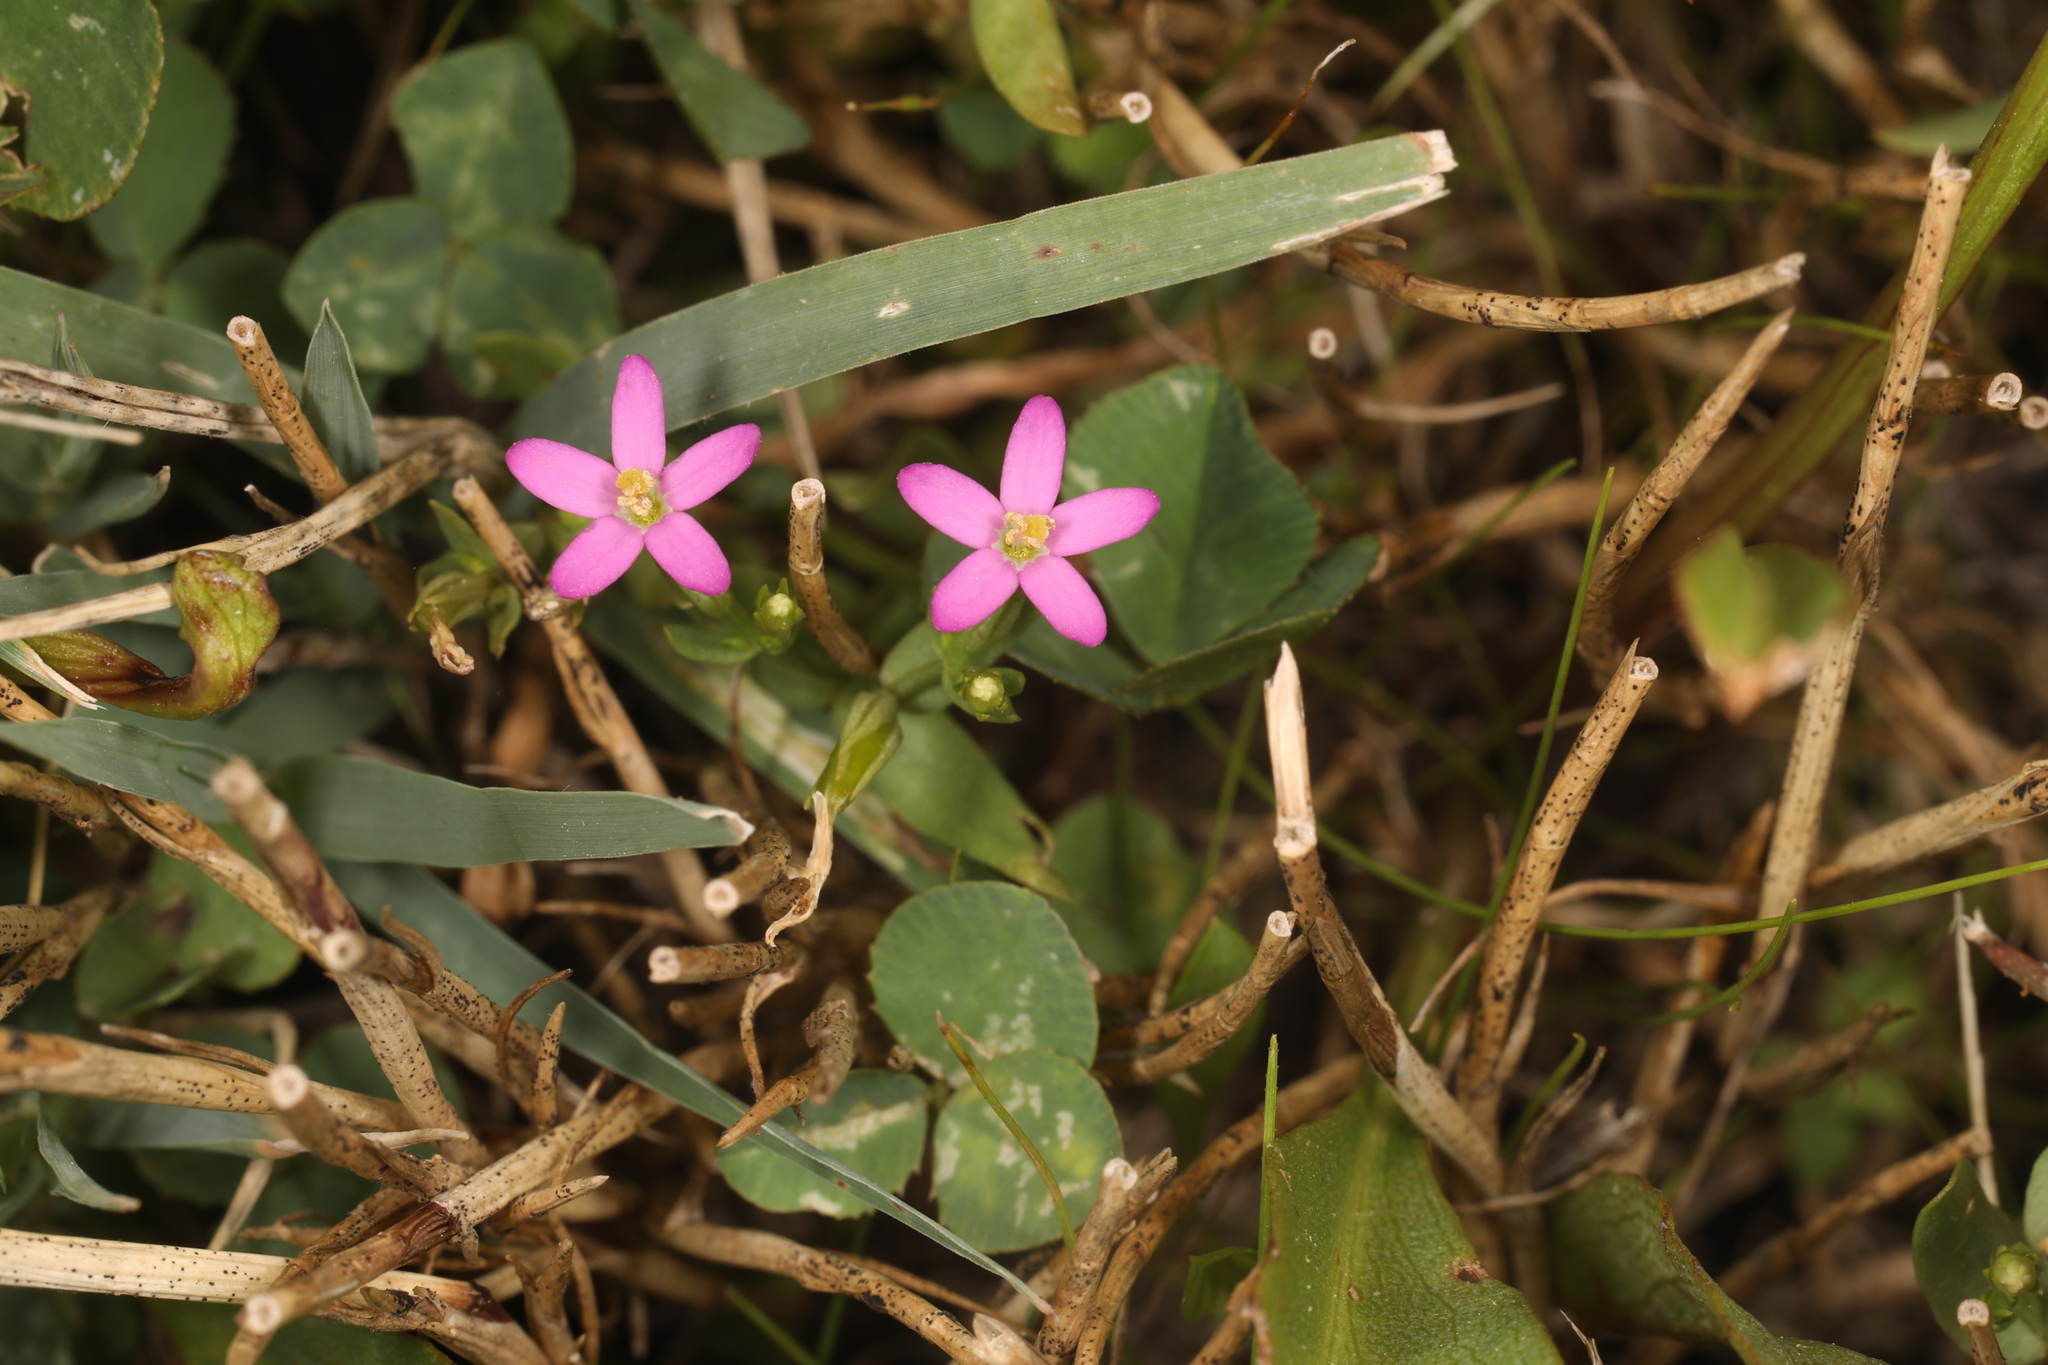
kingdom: Plantae
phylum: Tracheophyta
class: Magnoliopsida
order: Gentianales
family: Gentianaceae
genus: Centaurium
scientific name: Centaurium pulchellum
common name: Lesser centaury
